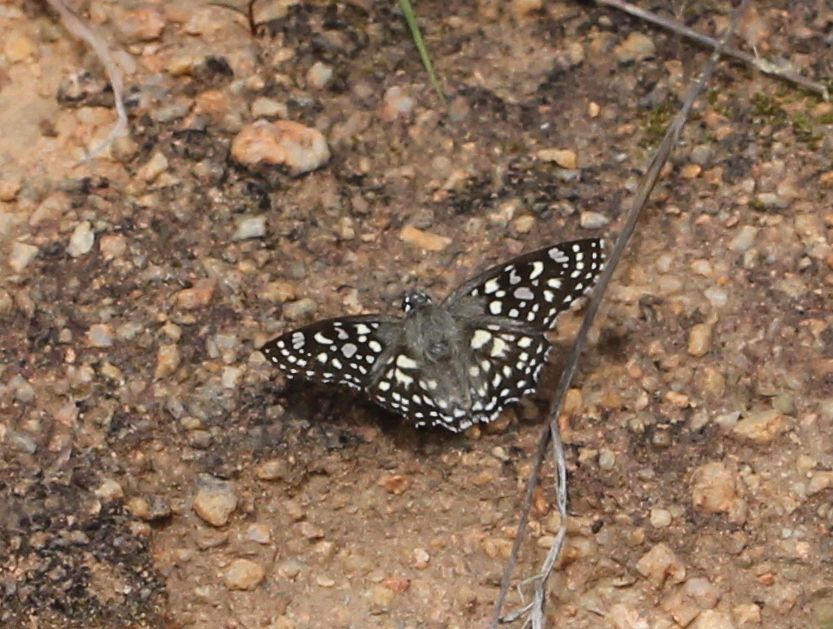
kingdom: Animalia
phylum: Arthropoda
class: Insecta
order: Lepidoptera
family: Hesperiidae
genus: Caprona
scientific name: Caprona agama
